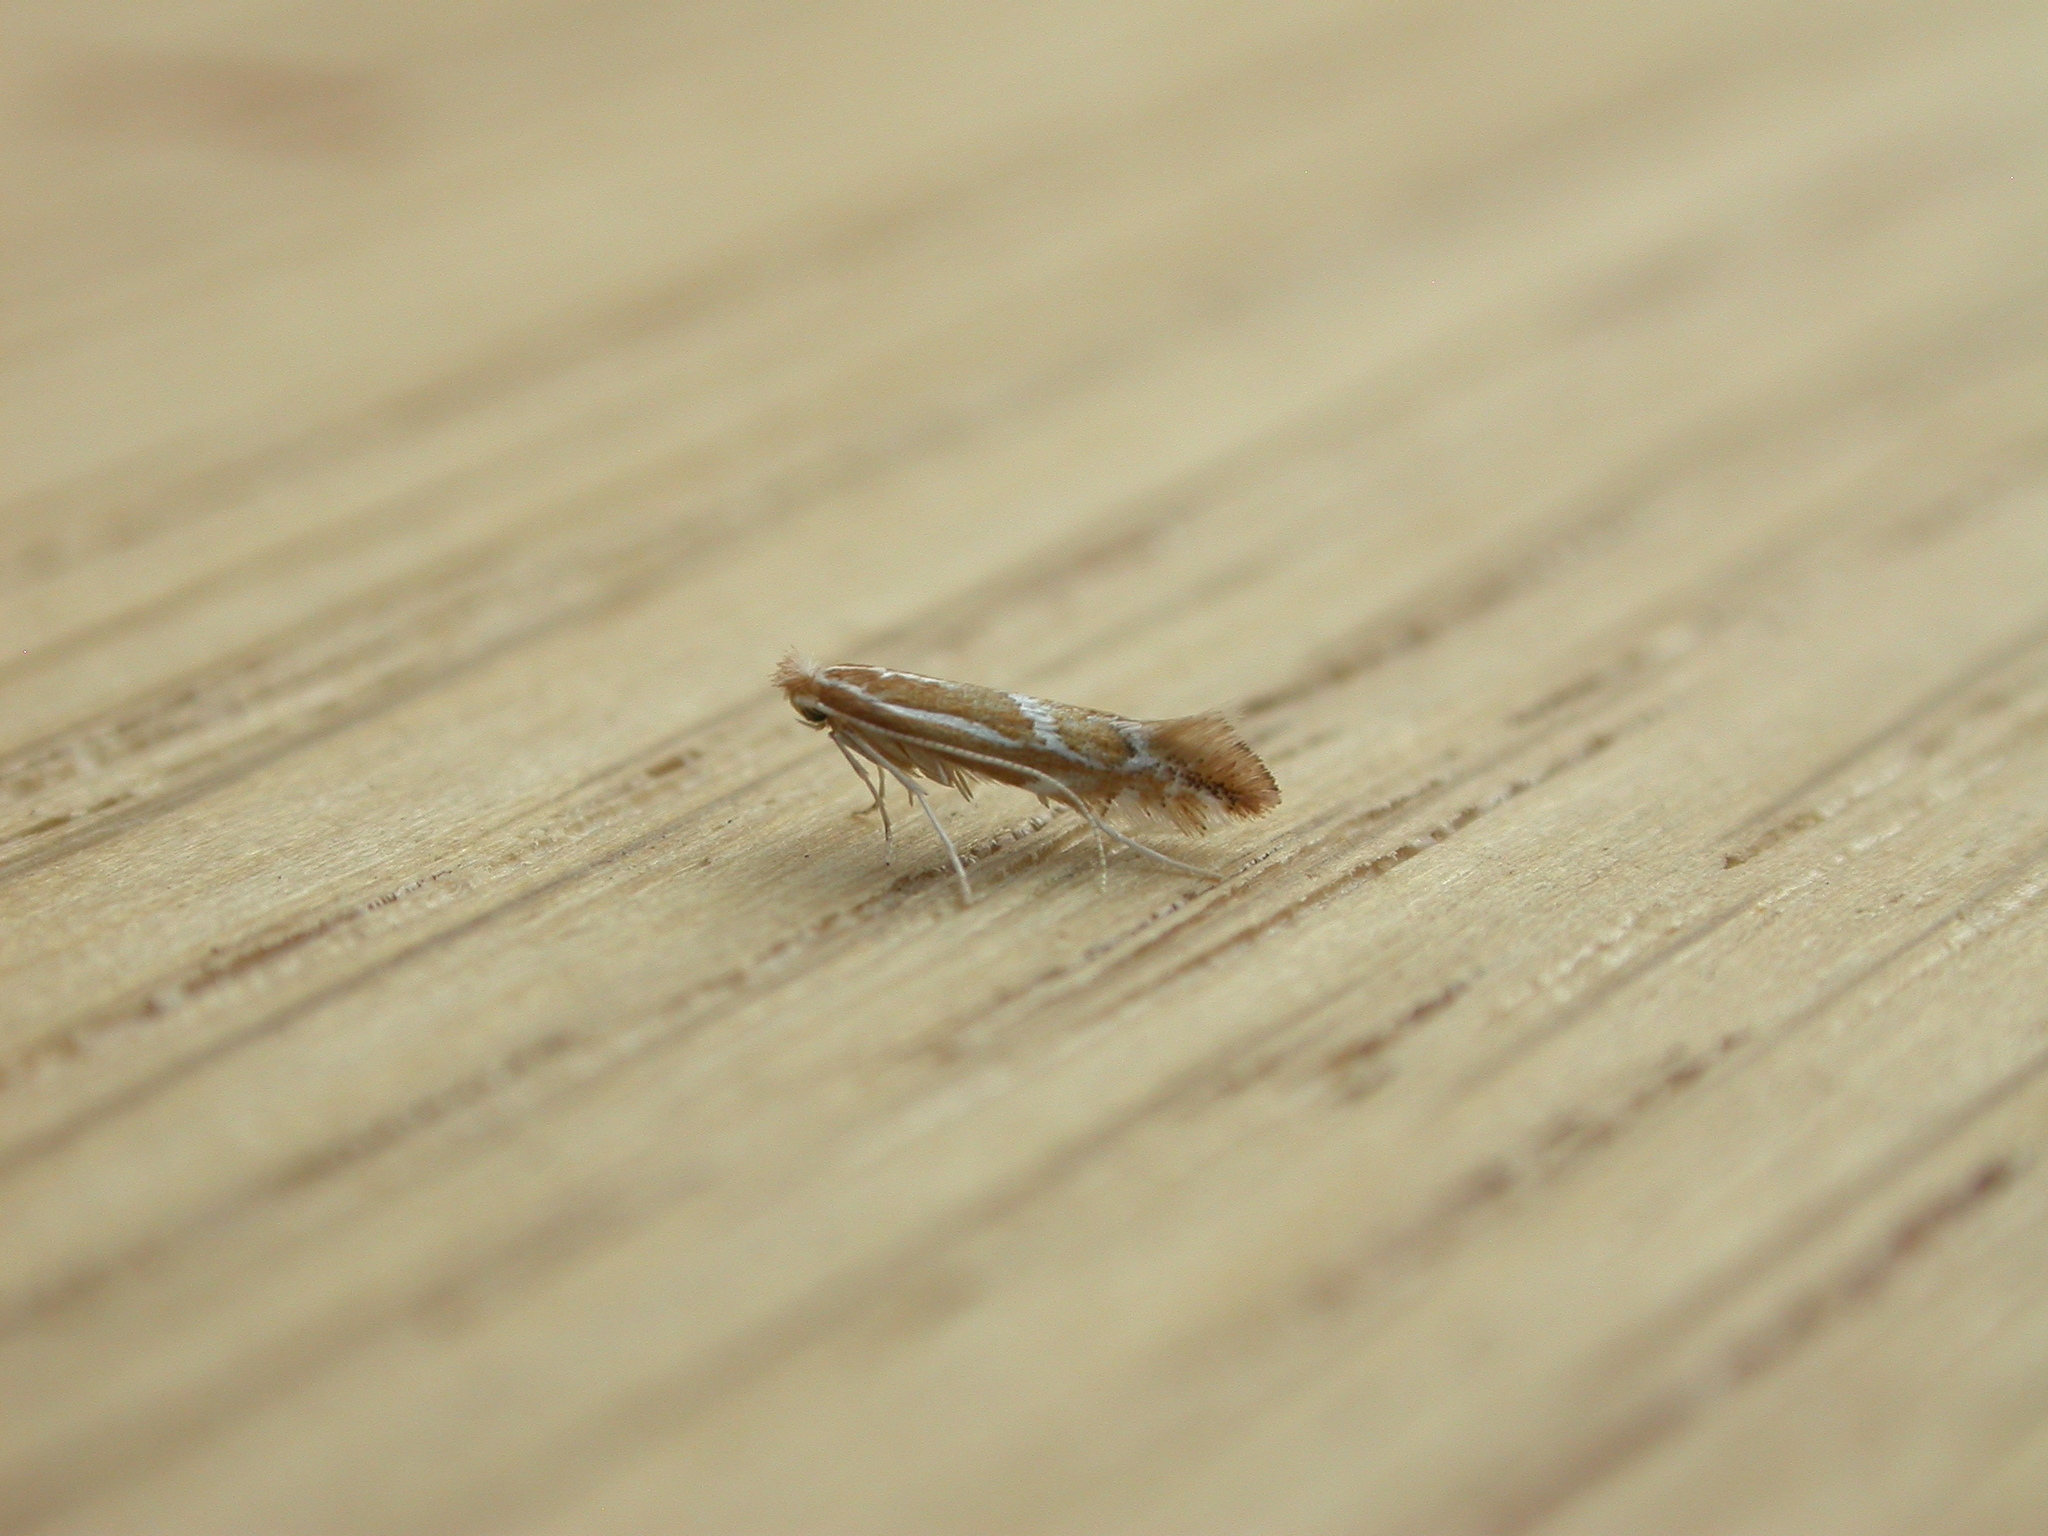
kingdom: Animalia
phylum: Arthropoda
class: Insecta
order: Lepidoptera
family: Gracillariidae
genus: Phyllonorycter
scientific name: Phyllonorycter leucographella
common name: Firethorn leaf-miner
